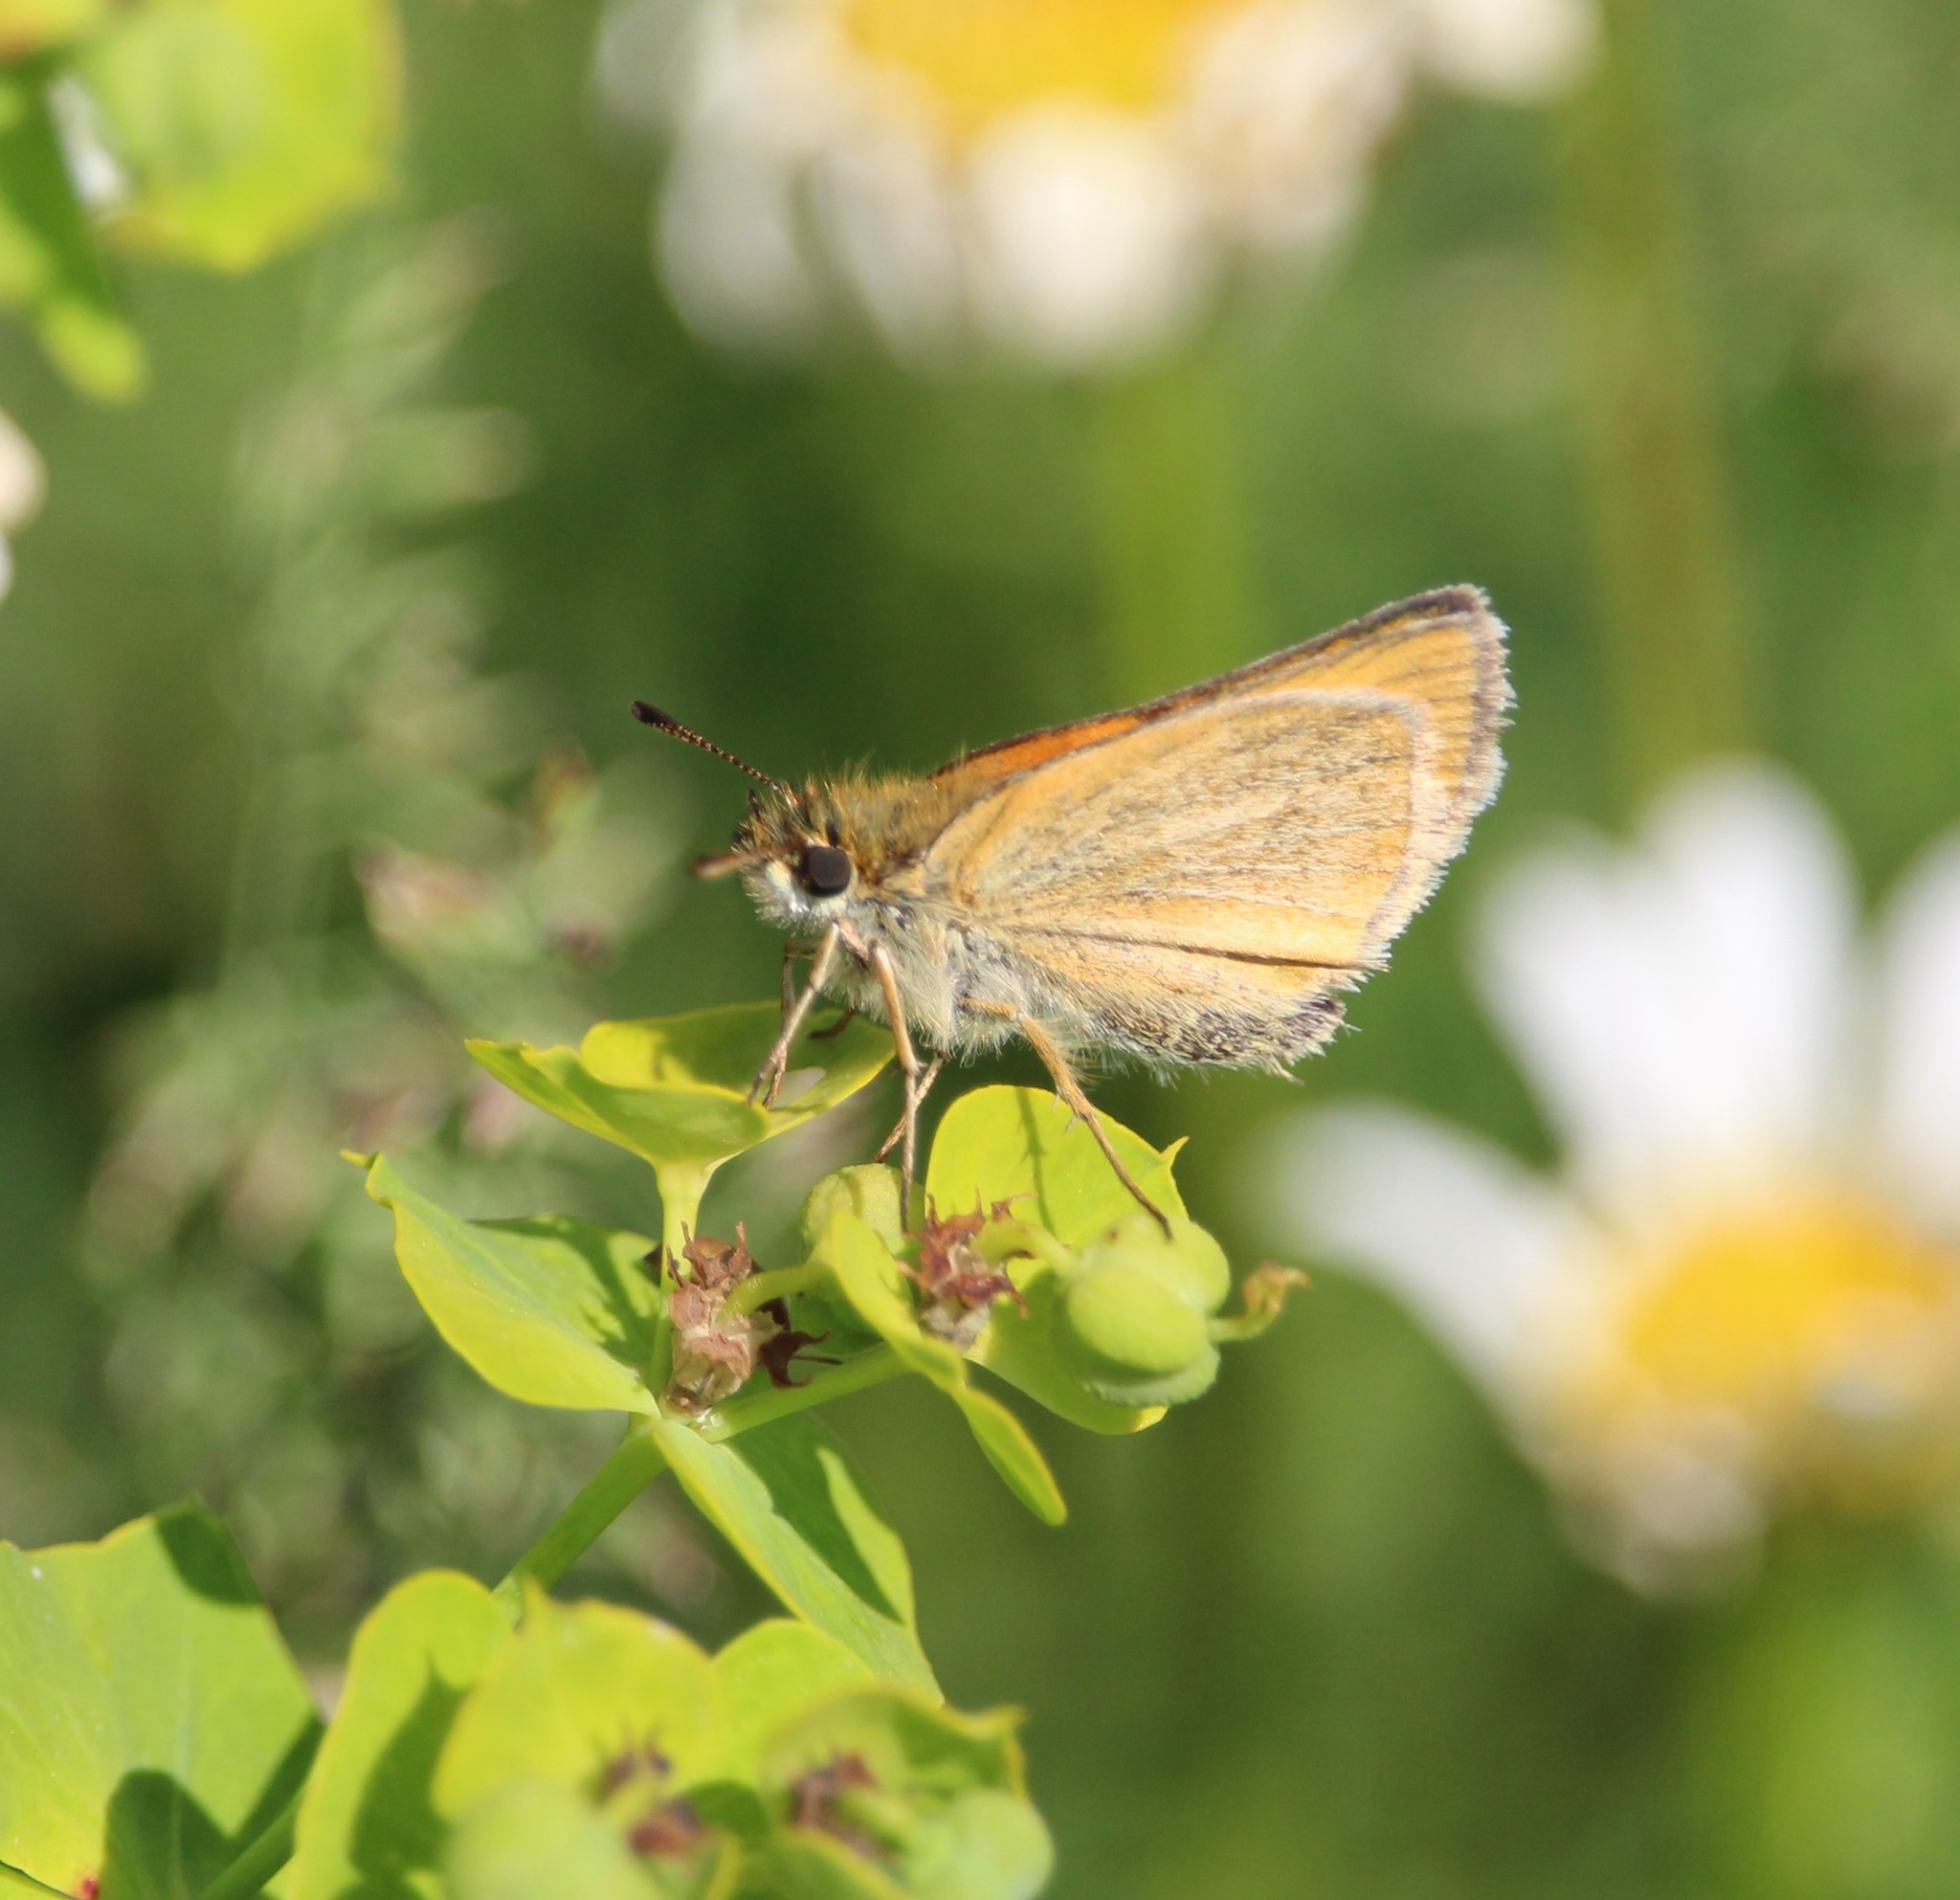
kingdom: Animalia
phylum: Arthropoda
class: Insecta
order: Lepidoptera
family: Hesperiidae
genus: Thymelicus
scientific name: Thymelicus lineola
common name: Essex skipper
